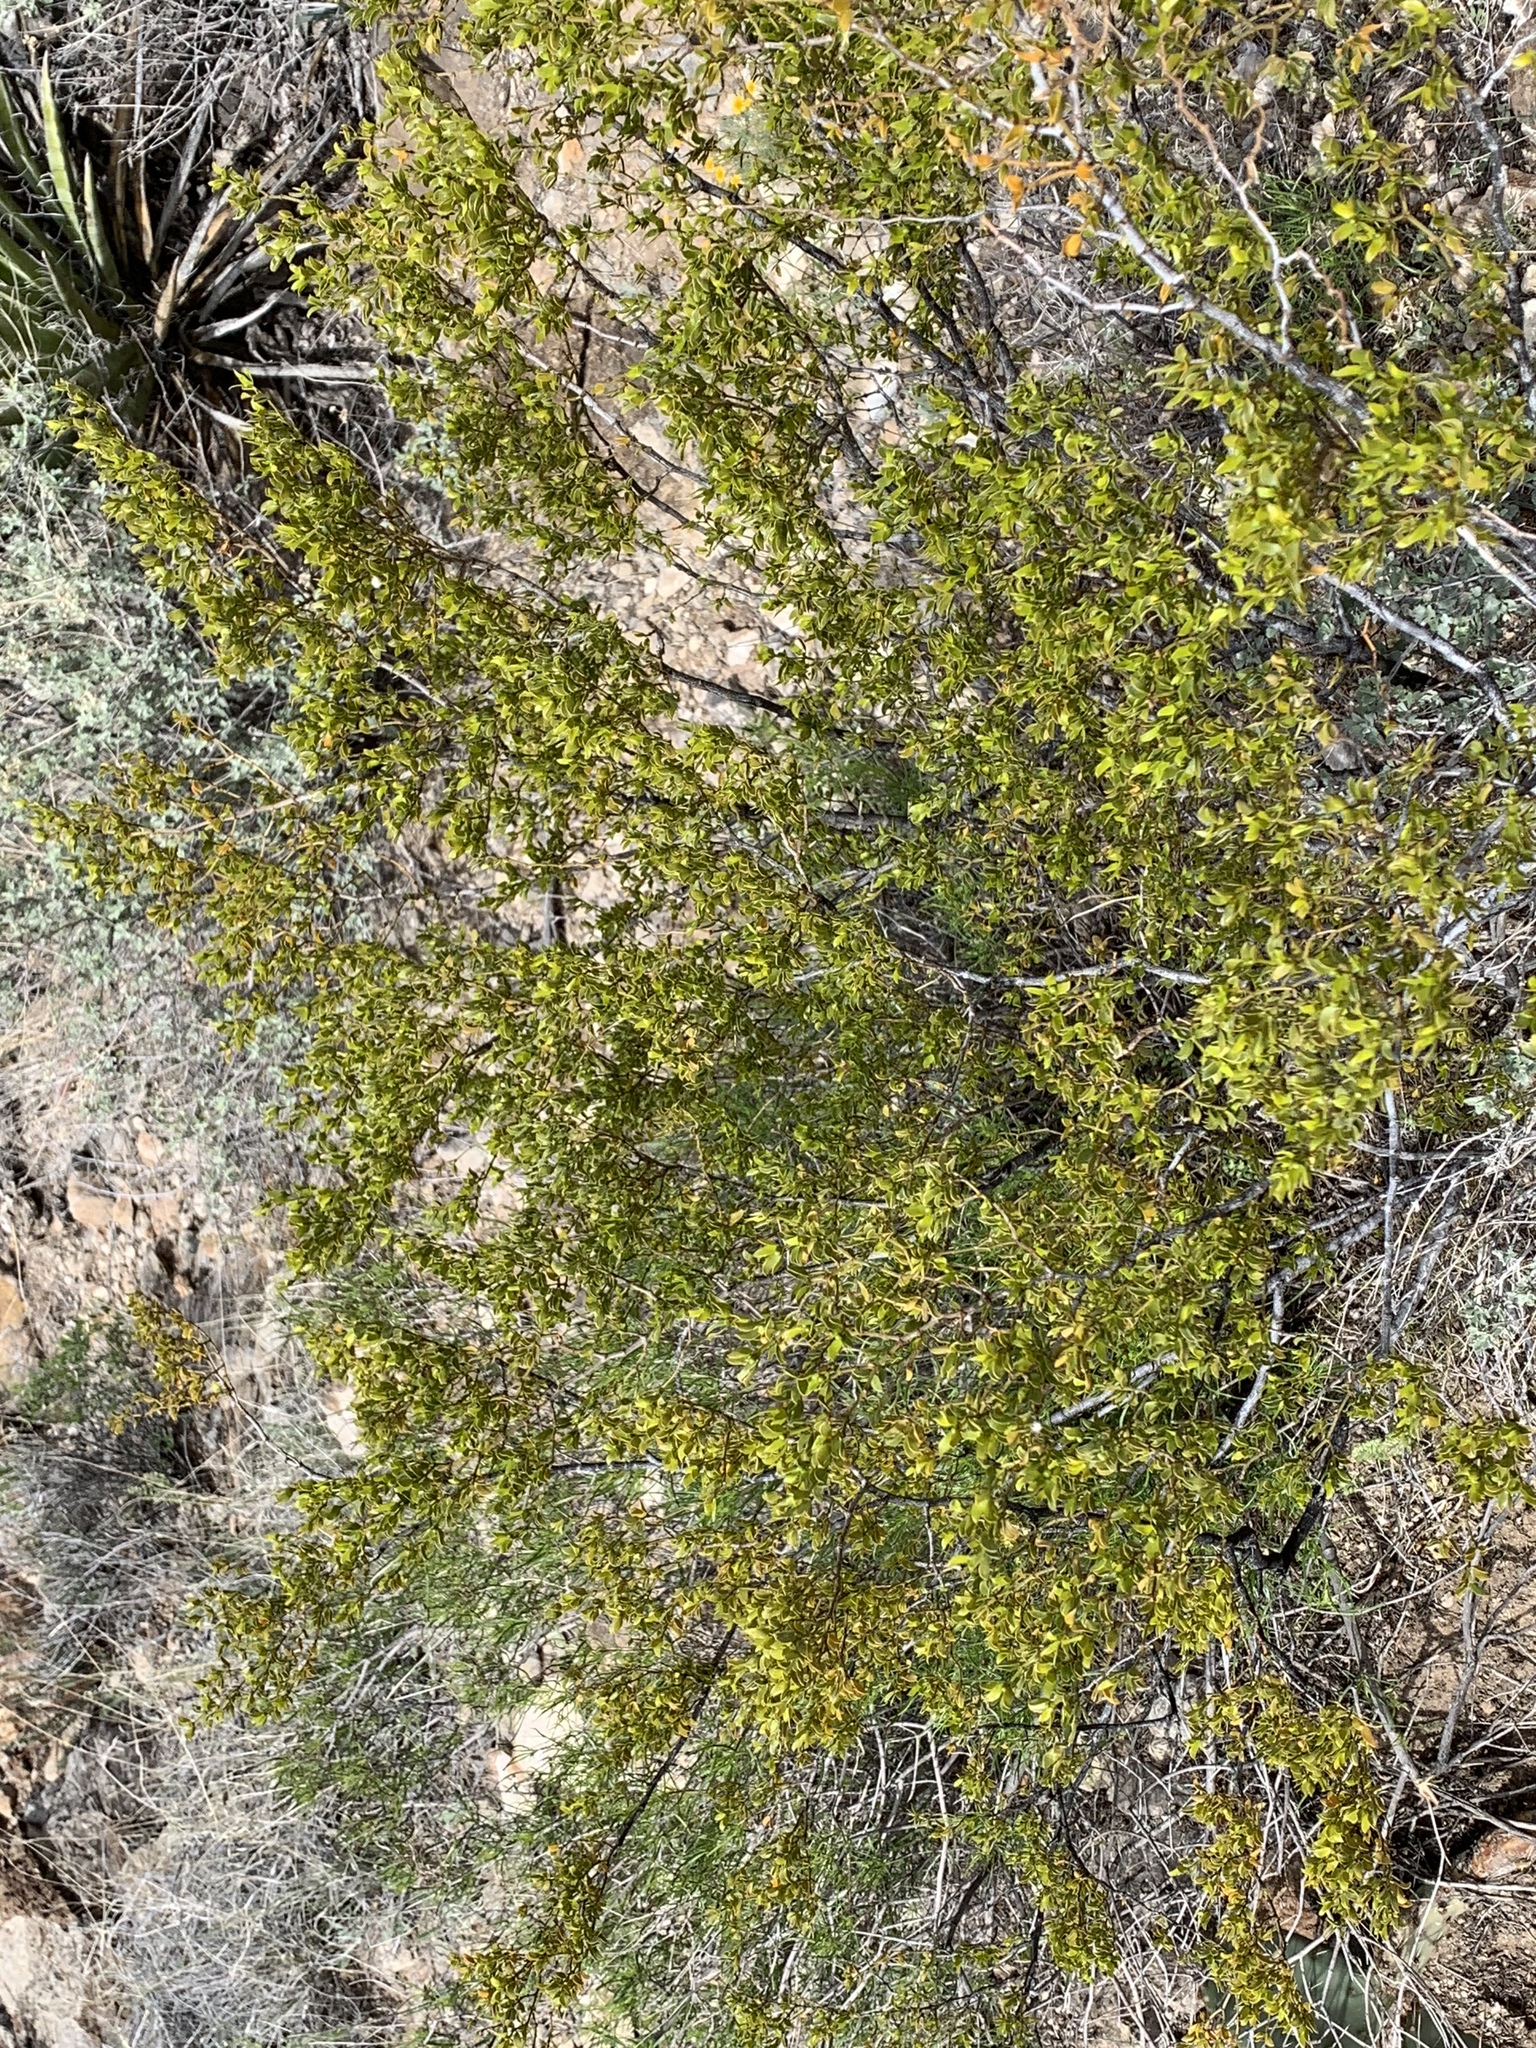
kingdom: Plantae
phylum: Tracheophyta
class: Magnoliopsida
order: Zygophyllales
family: Zygophyllaceae
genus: Larrea
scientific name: Larrea tridentata
